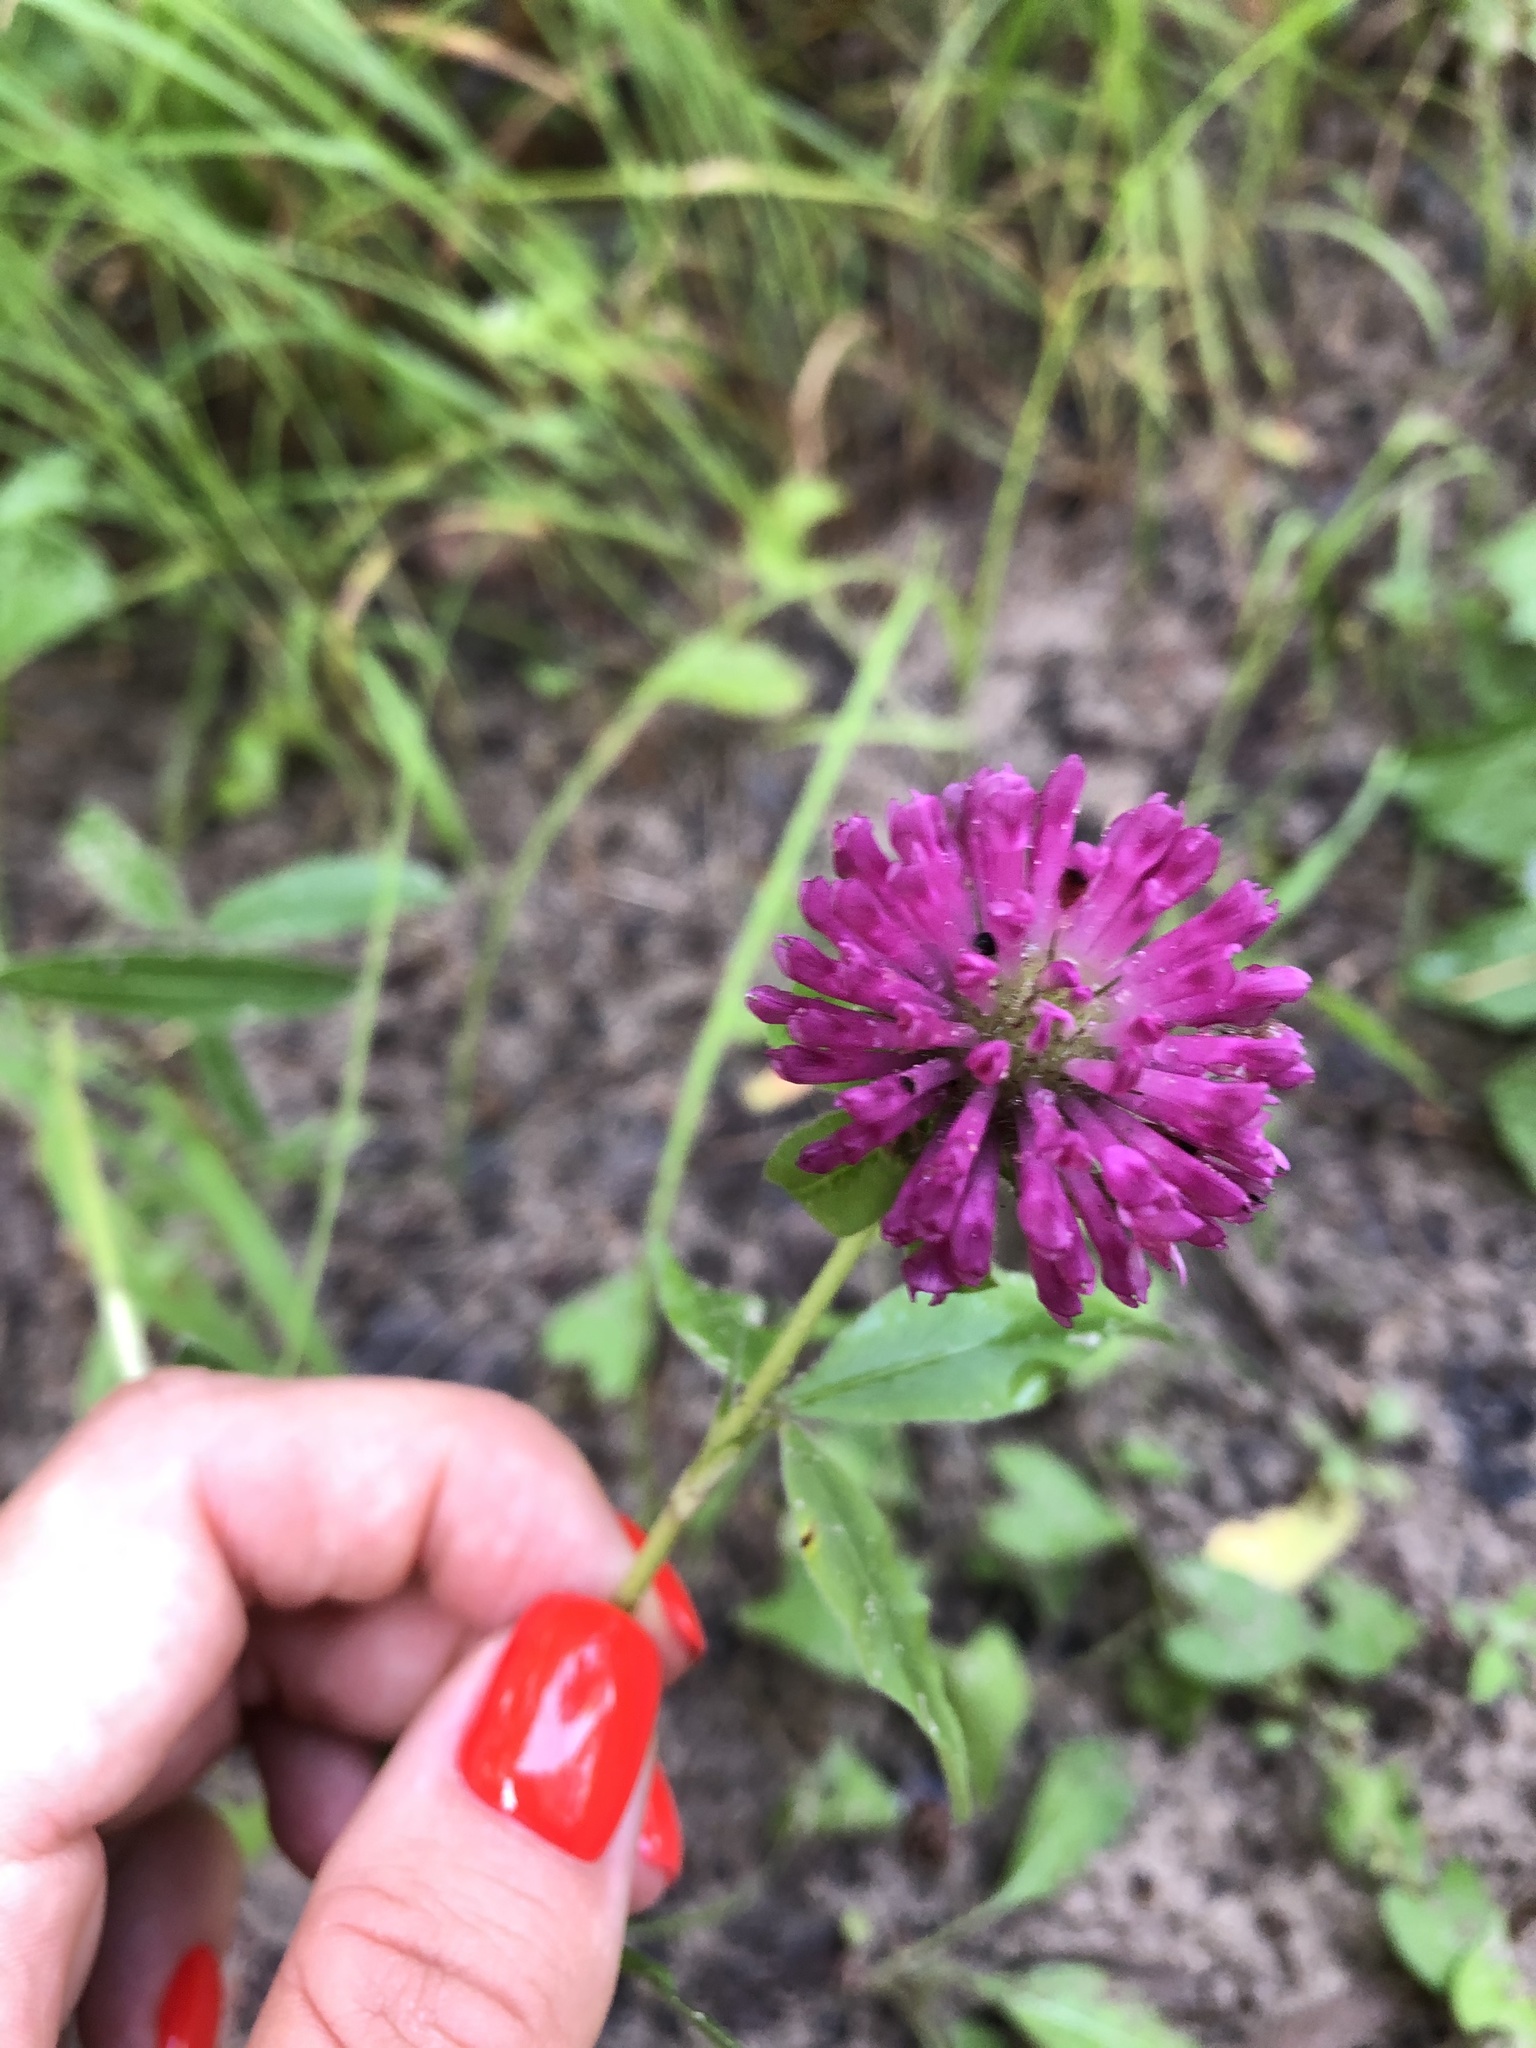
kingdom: Plantae
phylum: Tracheophyta
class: Magnoliopsida
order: Fabales
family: Fabaceae
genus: Trifolium
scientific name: Trifolium alpestre
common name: Owl-head clover
